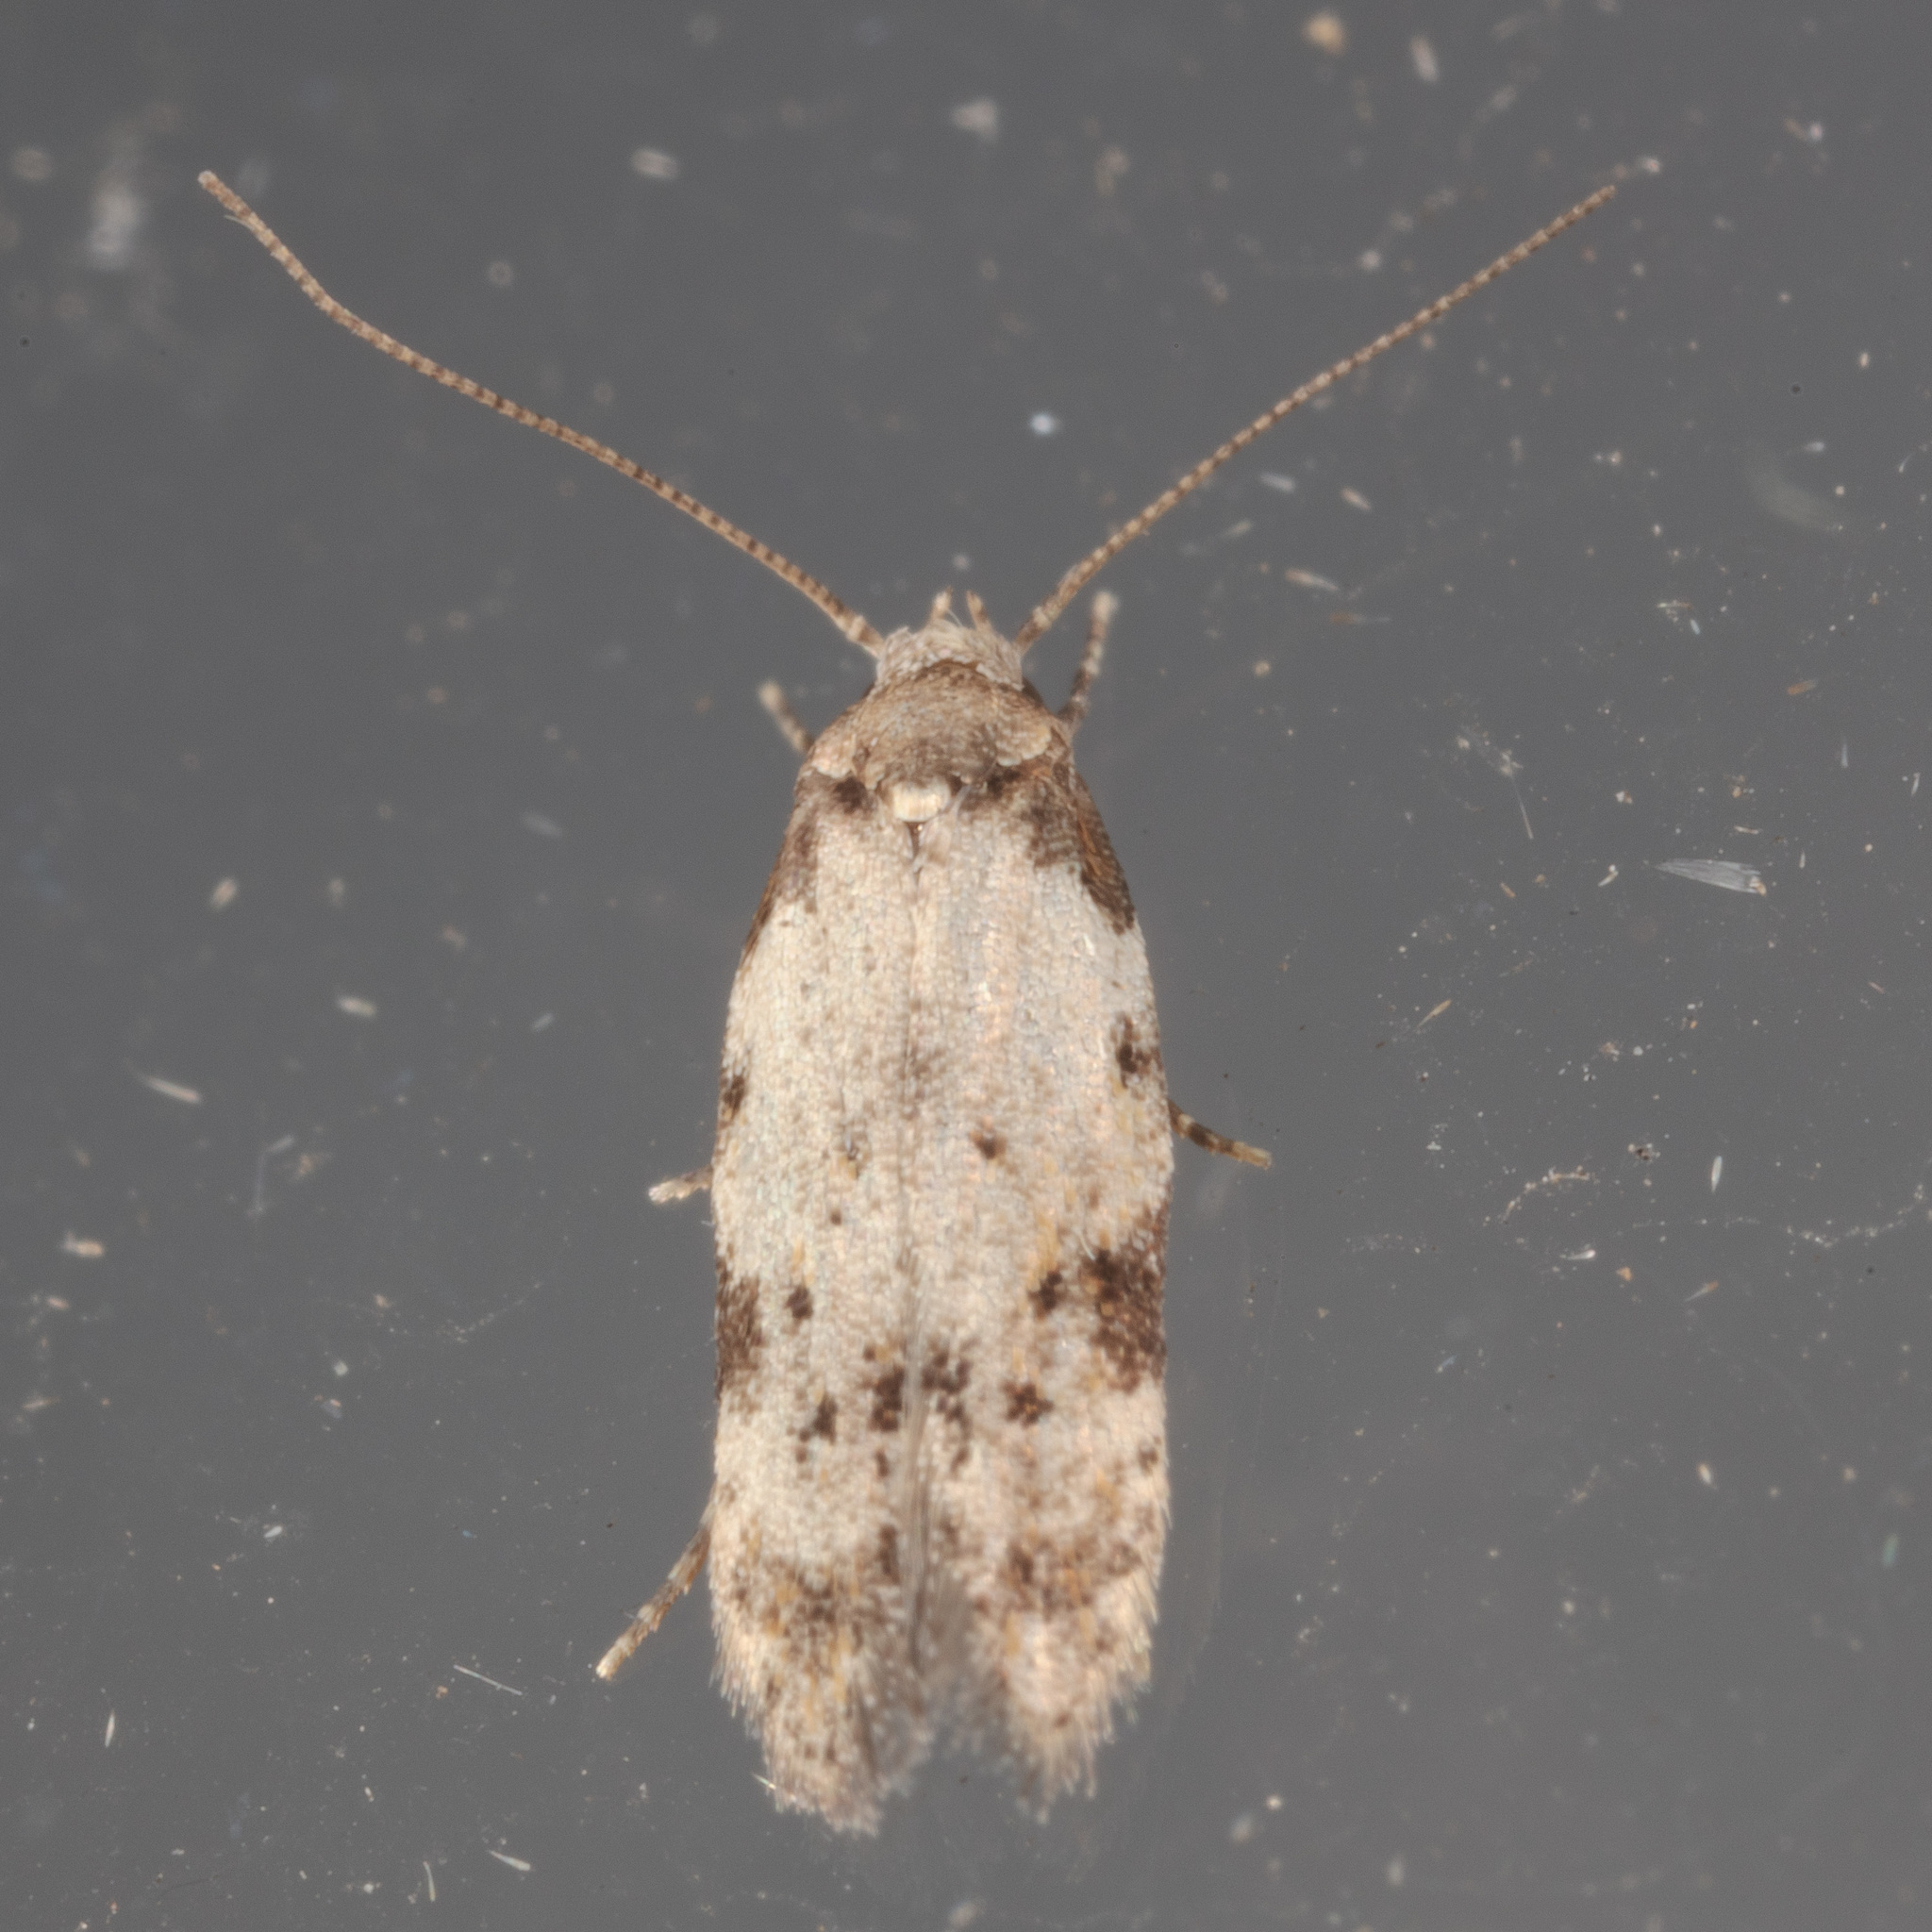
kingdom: Animalia
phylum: Arthropoda
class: Insecta
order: Lepidoptera
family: Autostichidae
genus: Taygete
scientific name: Taygete attributella
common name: Triangle-marked twirler moth
